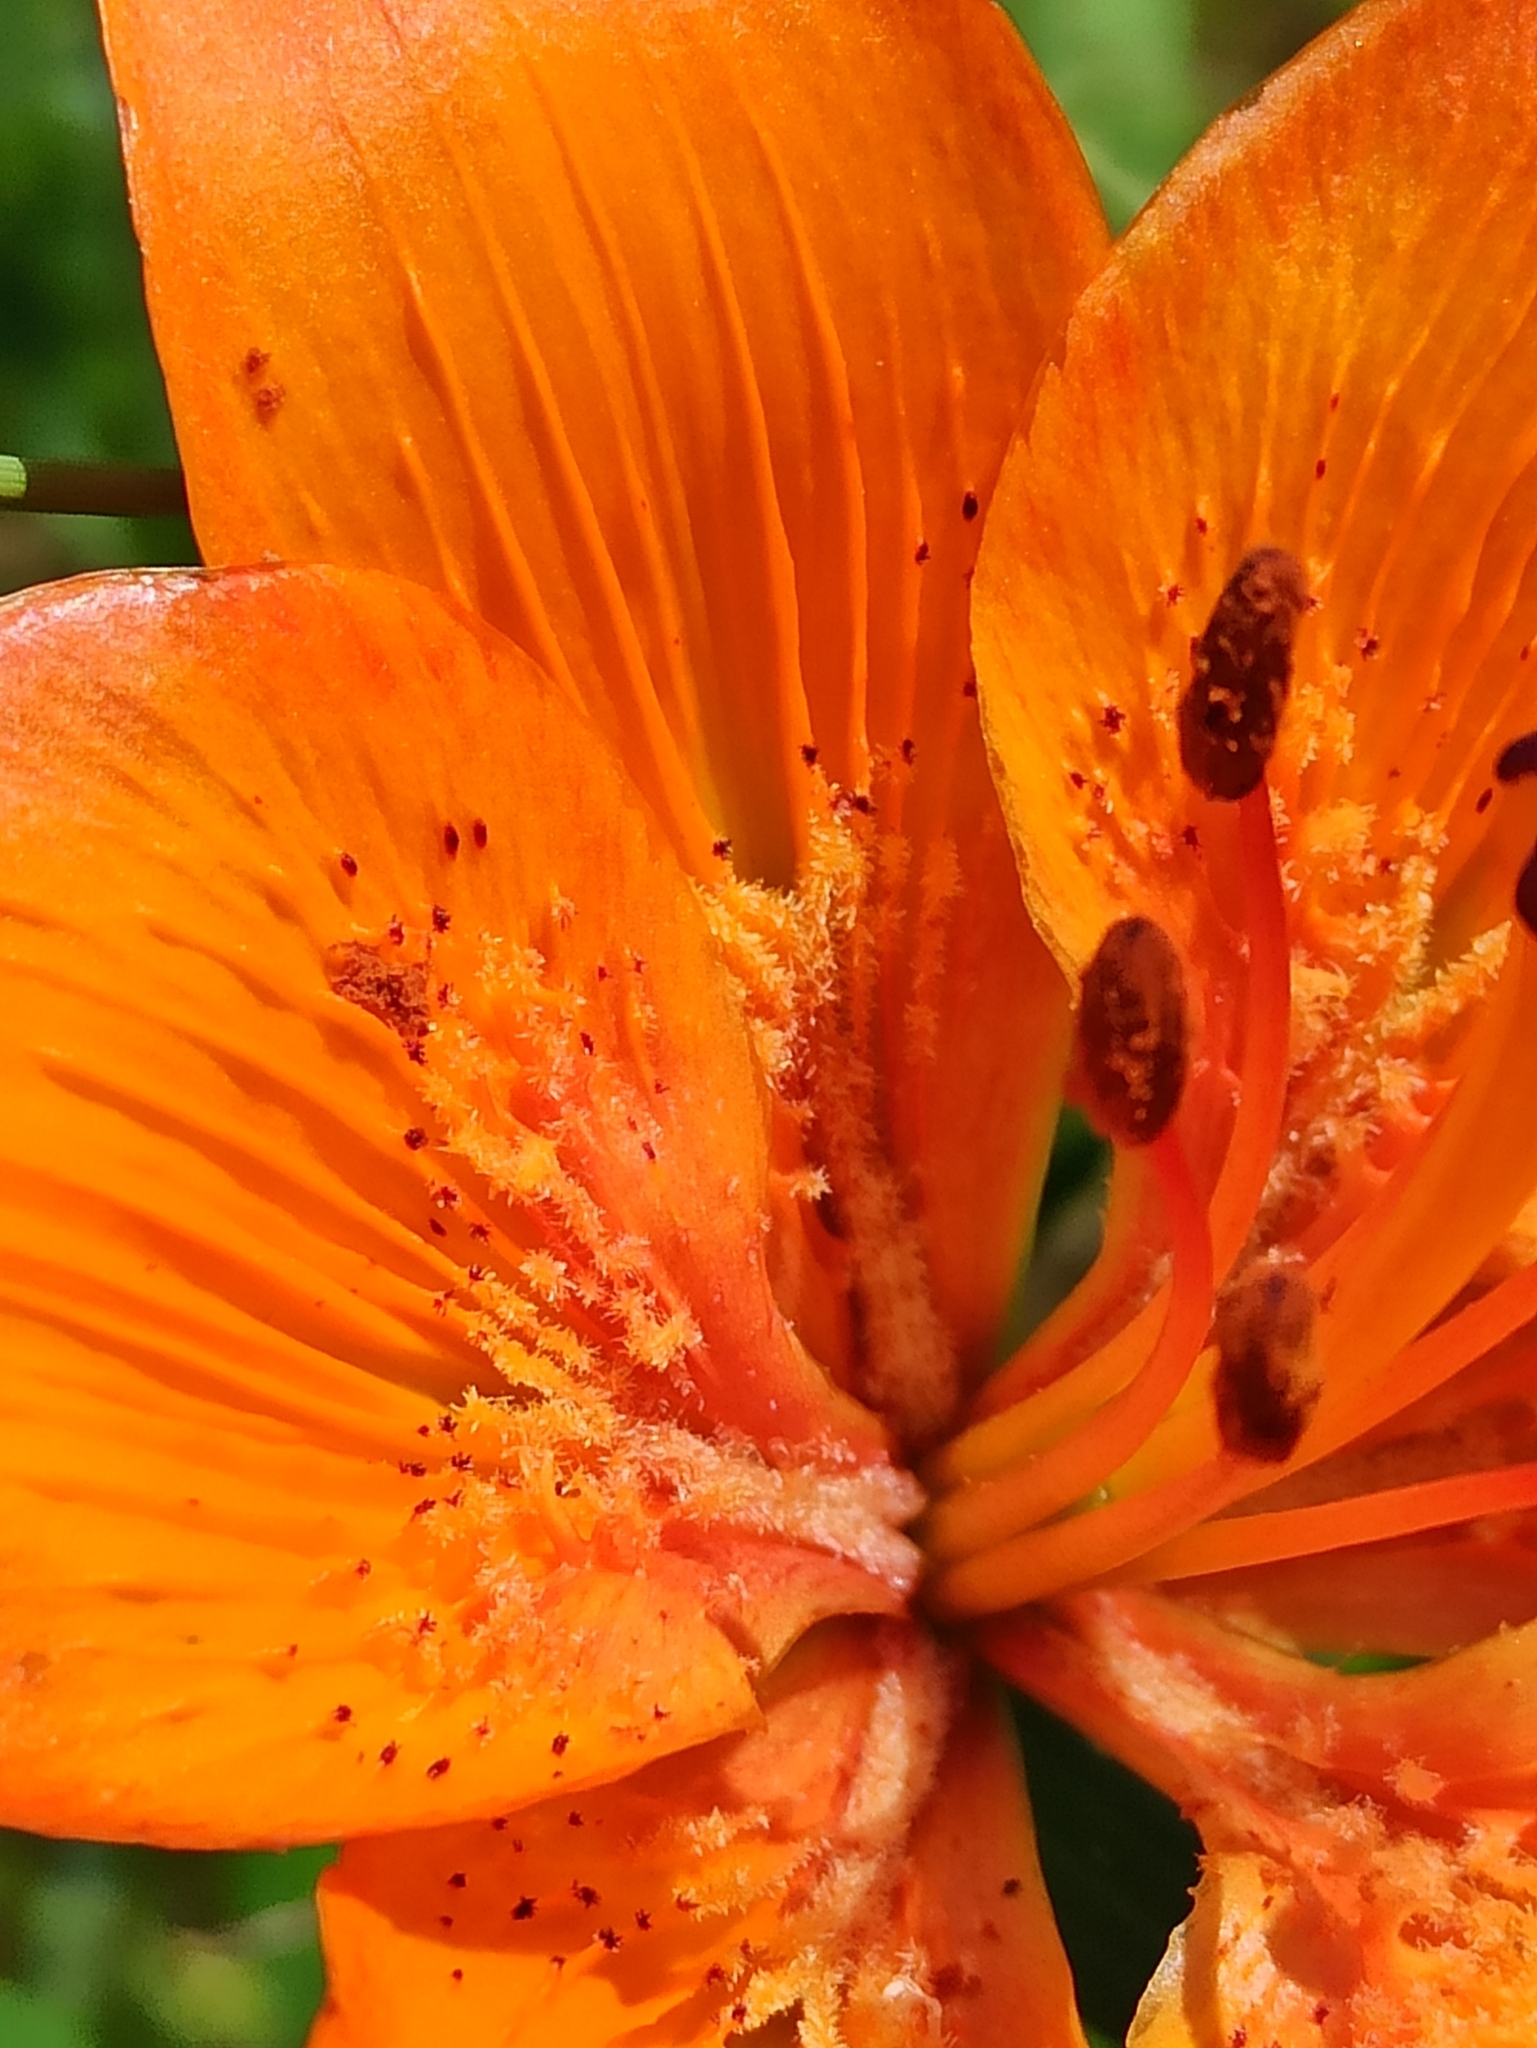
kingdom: Plantae
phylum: Tracheophyta
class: Liliopsida
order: Liliales
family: Liliaceae
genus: Lilium
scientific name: Lilium bulbiferum
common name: Orange lily
